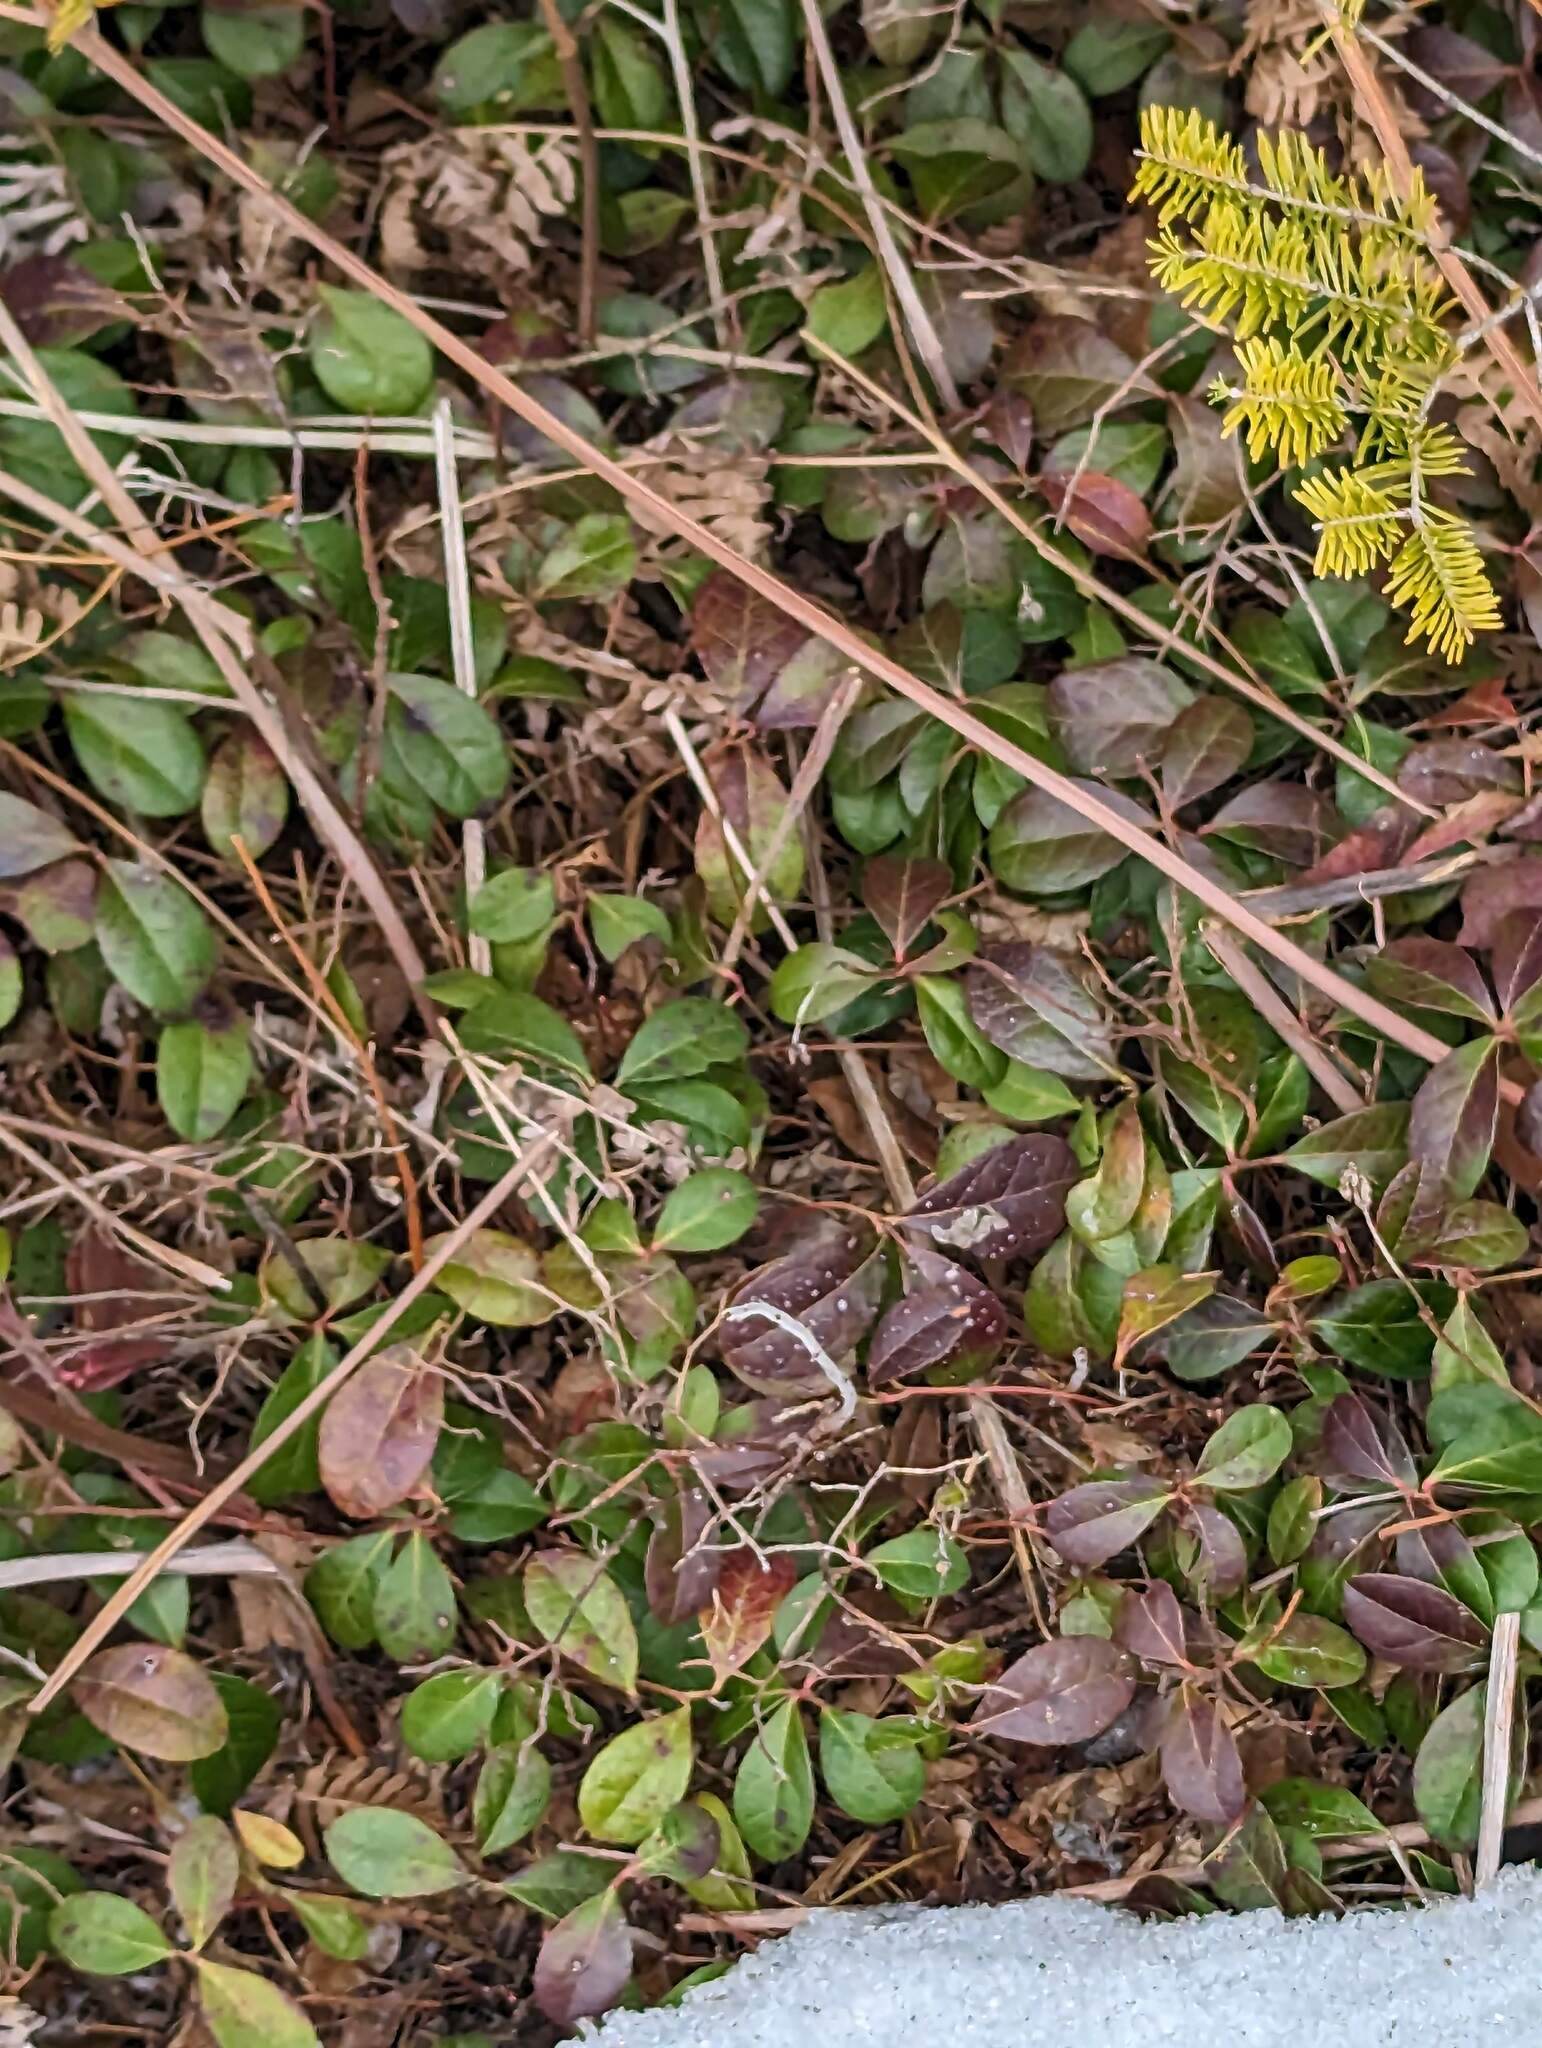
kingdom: Plantae
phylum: Tracheophyta
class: Magnoliopsida
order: Ericales
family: Ericaceae
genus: Gaultheria
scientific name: Gaultheria procumbens
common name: Checkerberry
